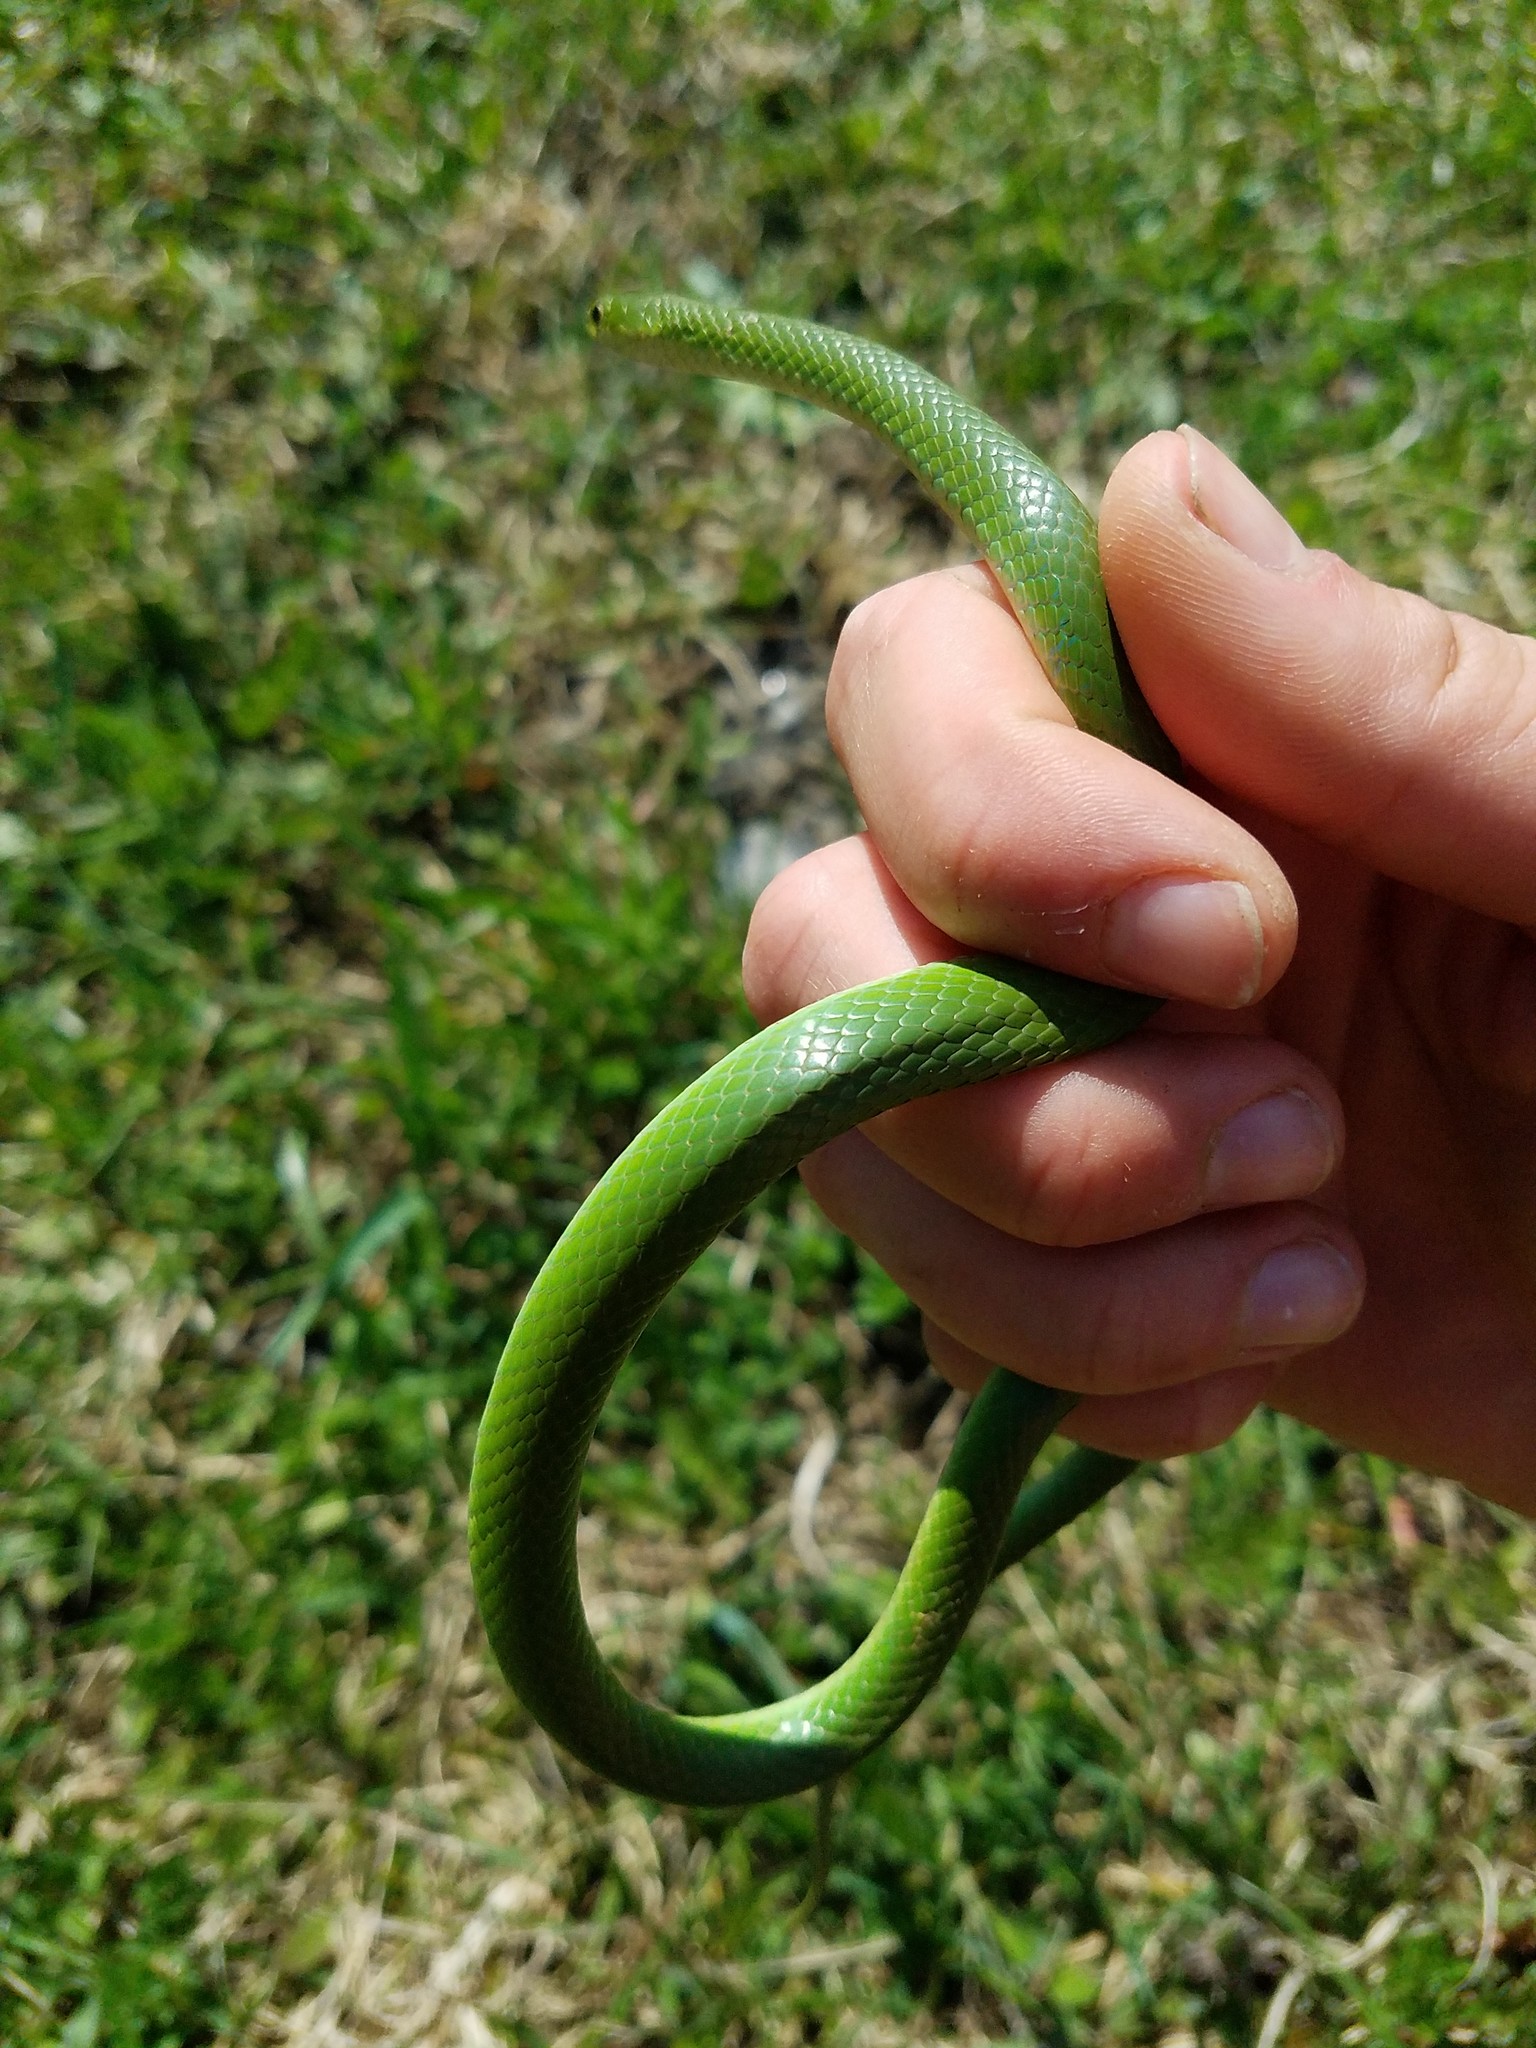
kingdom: Animalia
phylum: Chordata
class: Squamata
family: Colubridae
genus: Opheodrys
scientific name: Opheodrys vernalis
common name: Smooth green snake
